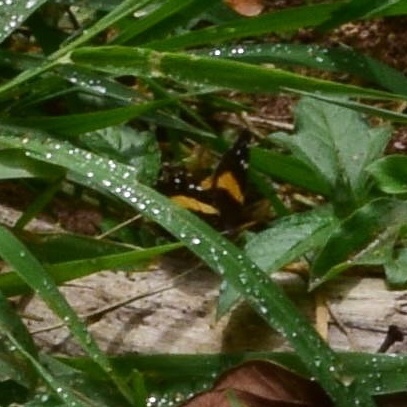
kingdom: Animalia
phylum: Arthropoda
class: Insecta
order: Lepidoptera
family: Nymphalidae
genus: Antanartia
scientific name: Antanartia hippomene
